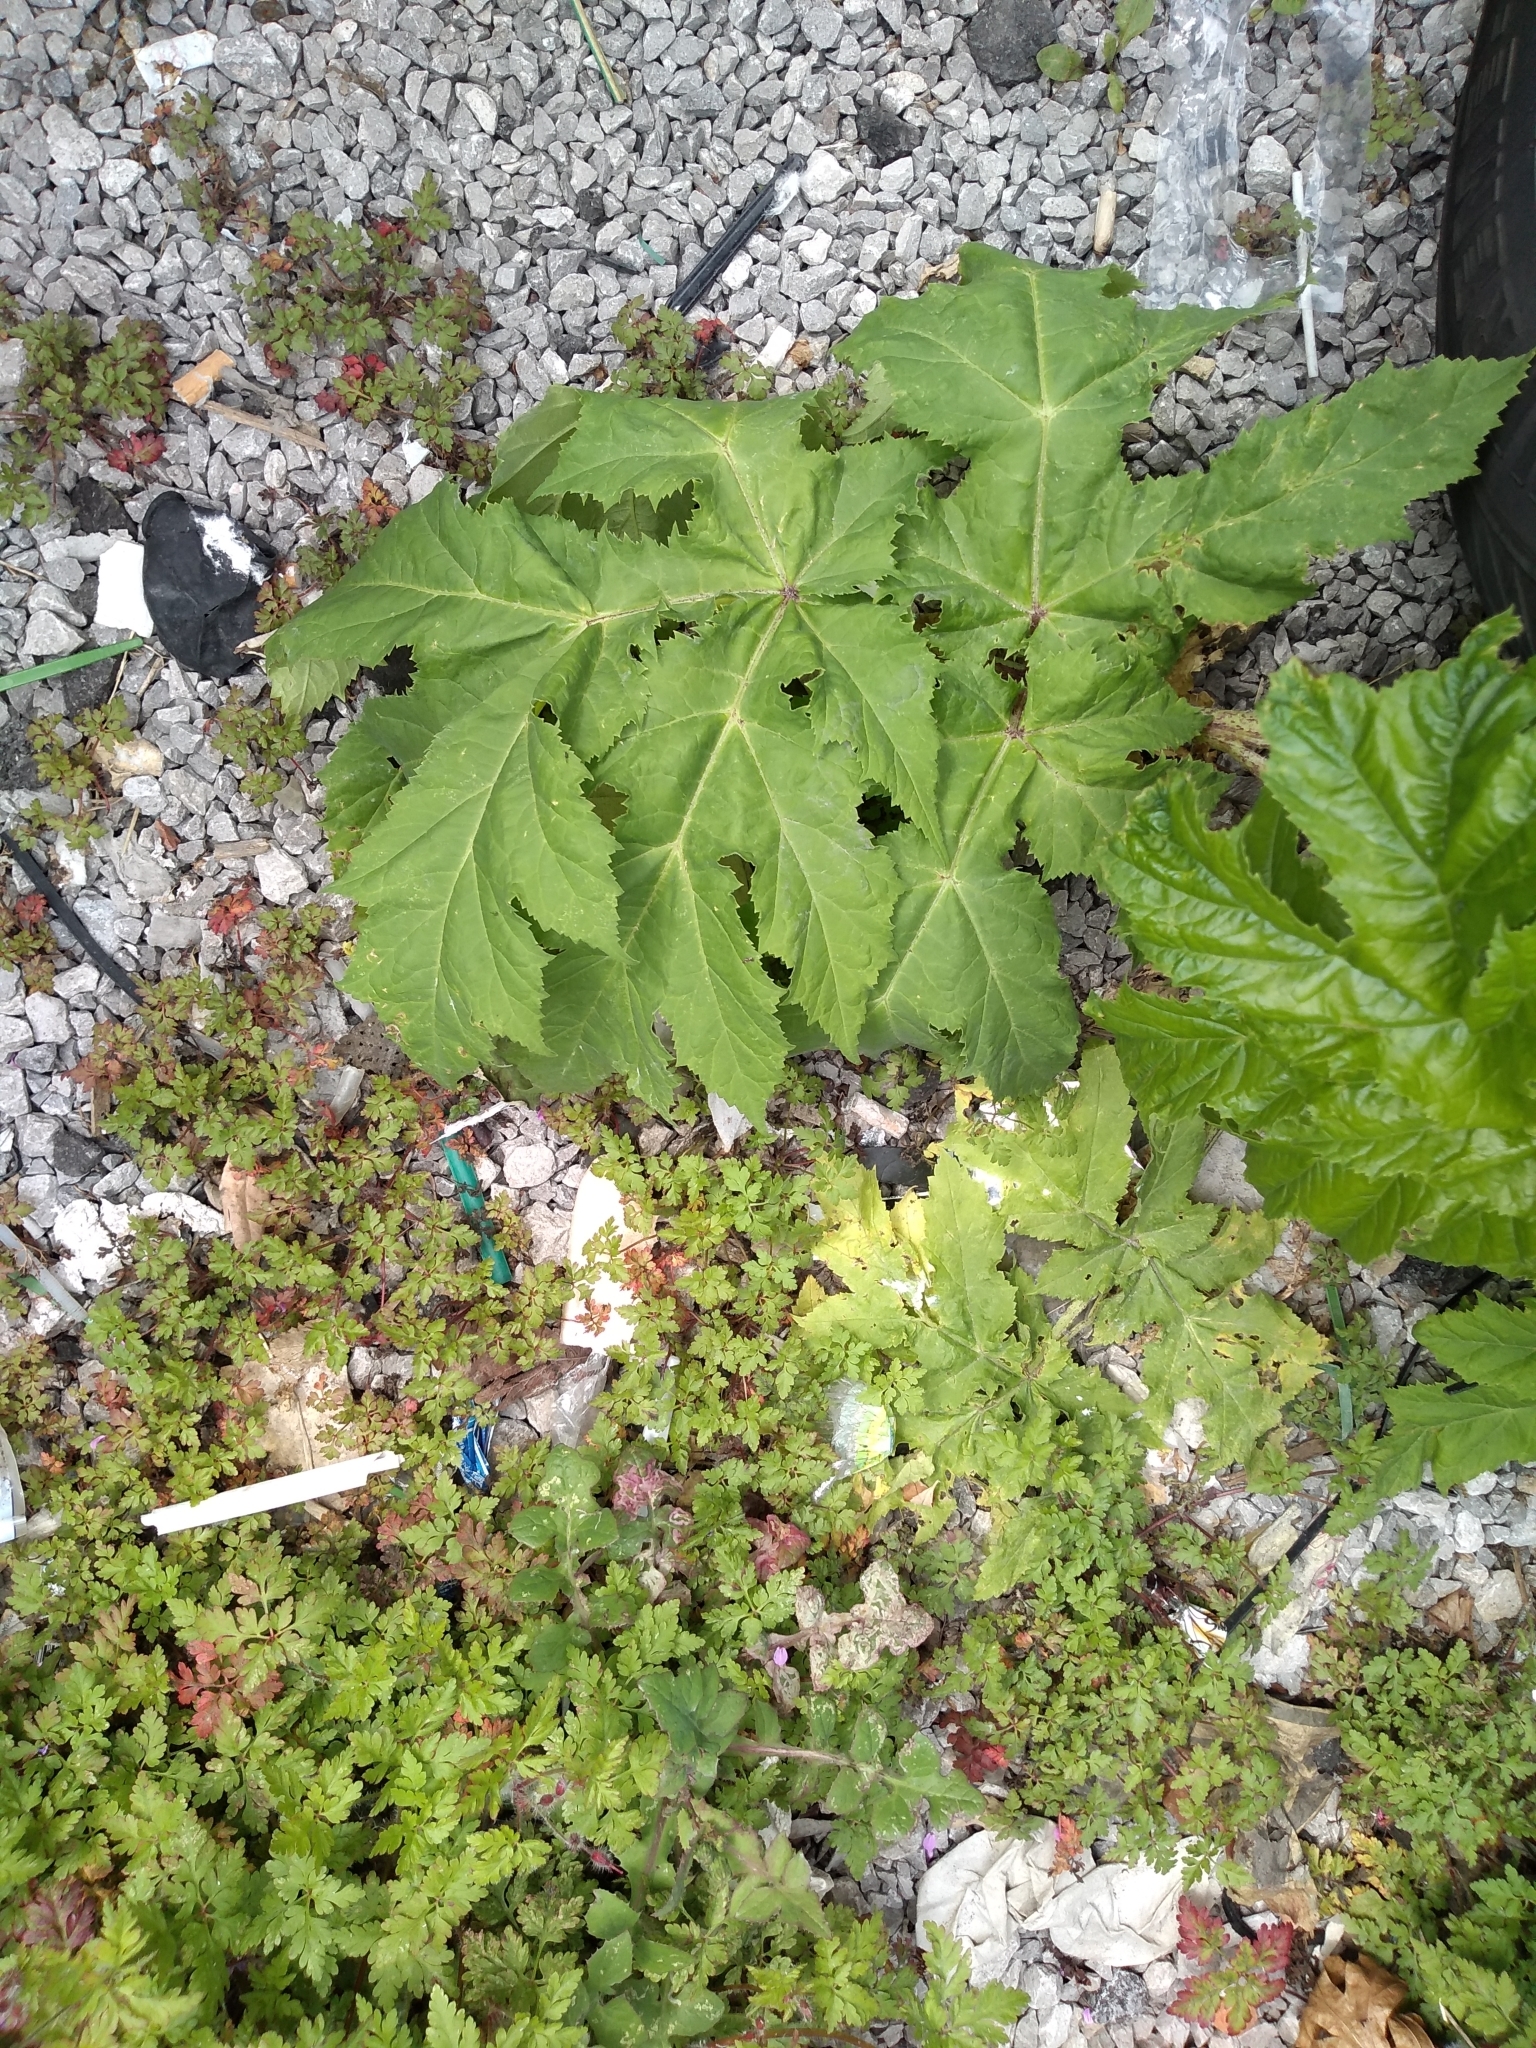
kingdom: Plantae
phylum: Tracheophyta
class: Magnoliopsida
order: Apiales
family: Apiaceae
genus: Heracleum
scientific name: Heracleum mantegazzianum
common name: Giant hogweed
